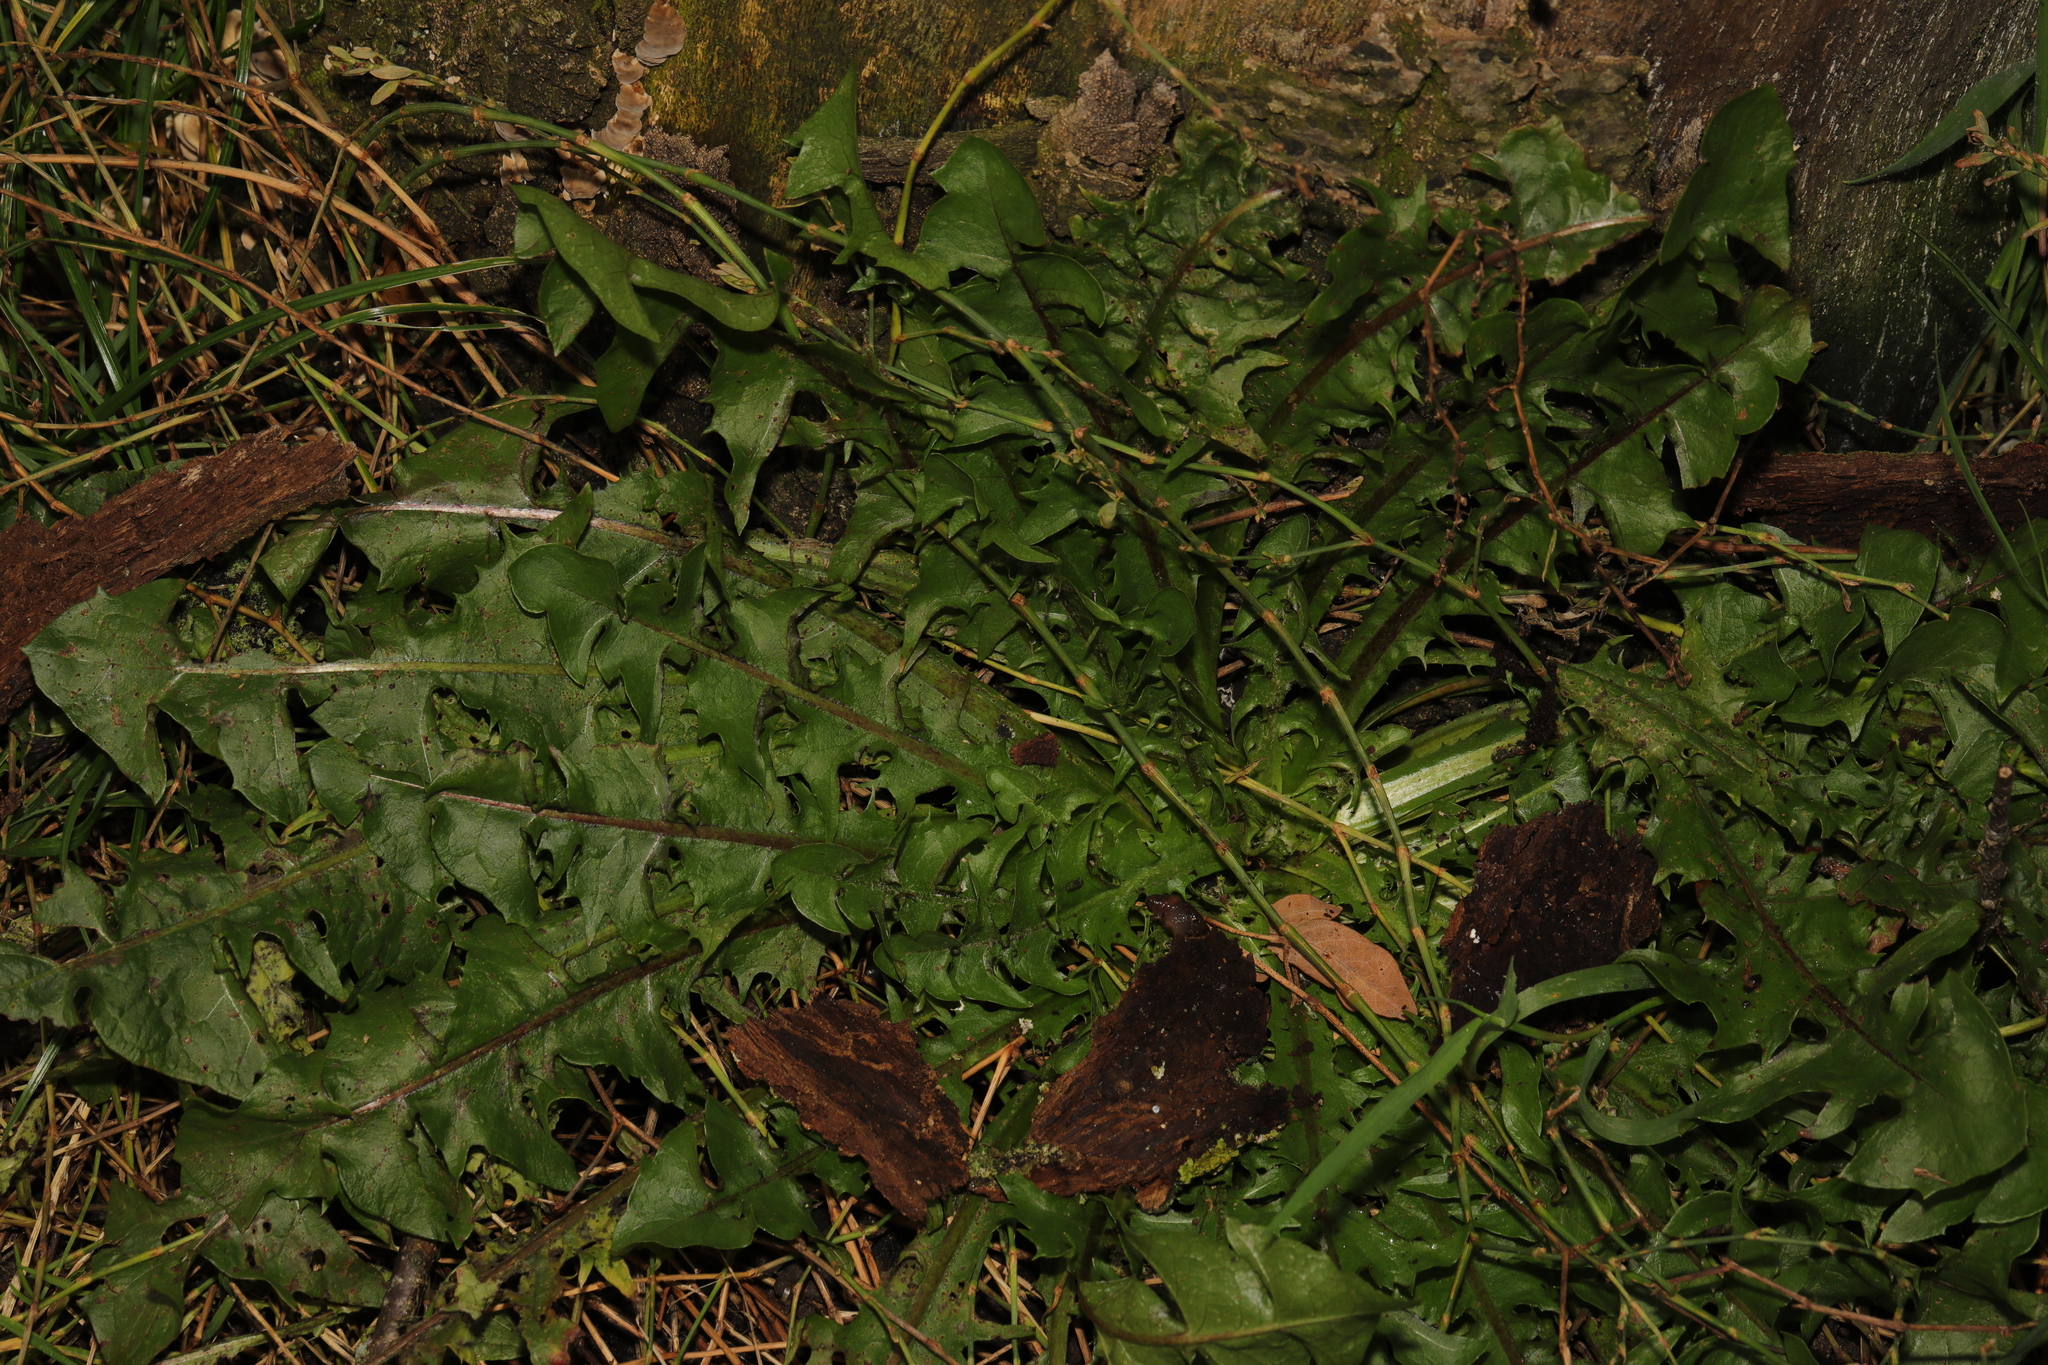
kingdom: Plantae
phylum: Tracheophyta
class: Magnoliopsida
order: Asterales
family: Asteraceae
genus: Taraxacum
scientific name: Taraxacum officinale
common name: Common dandelion
